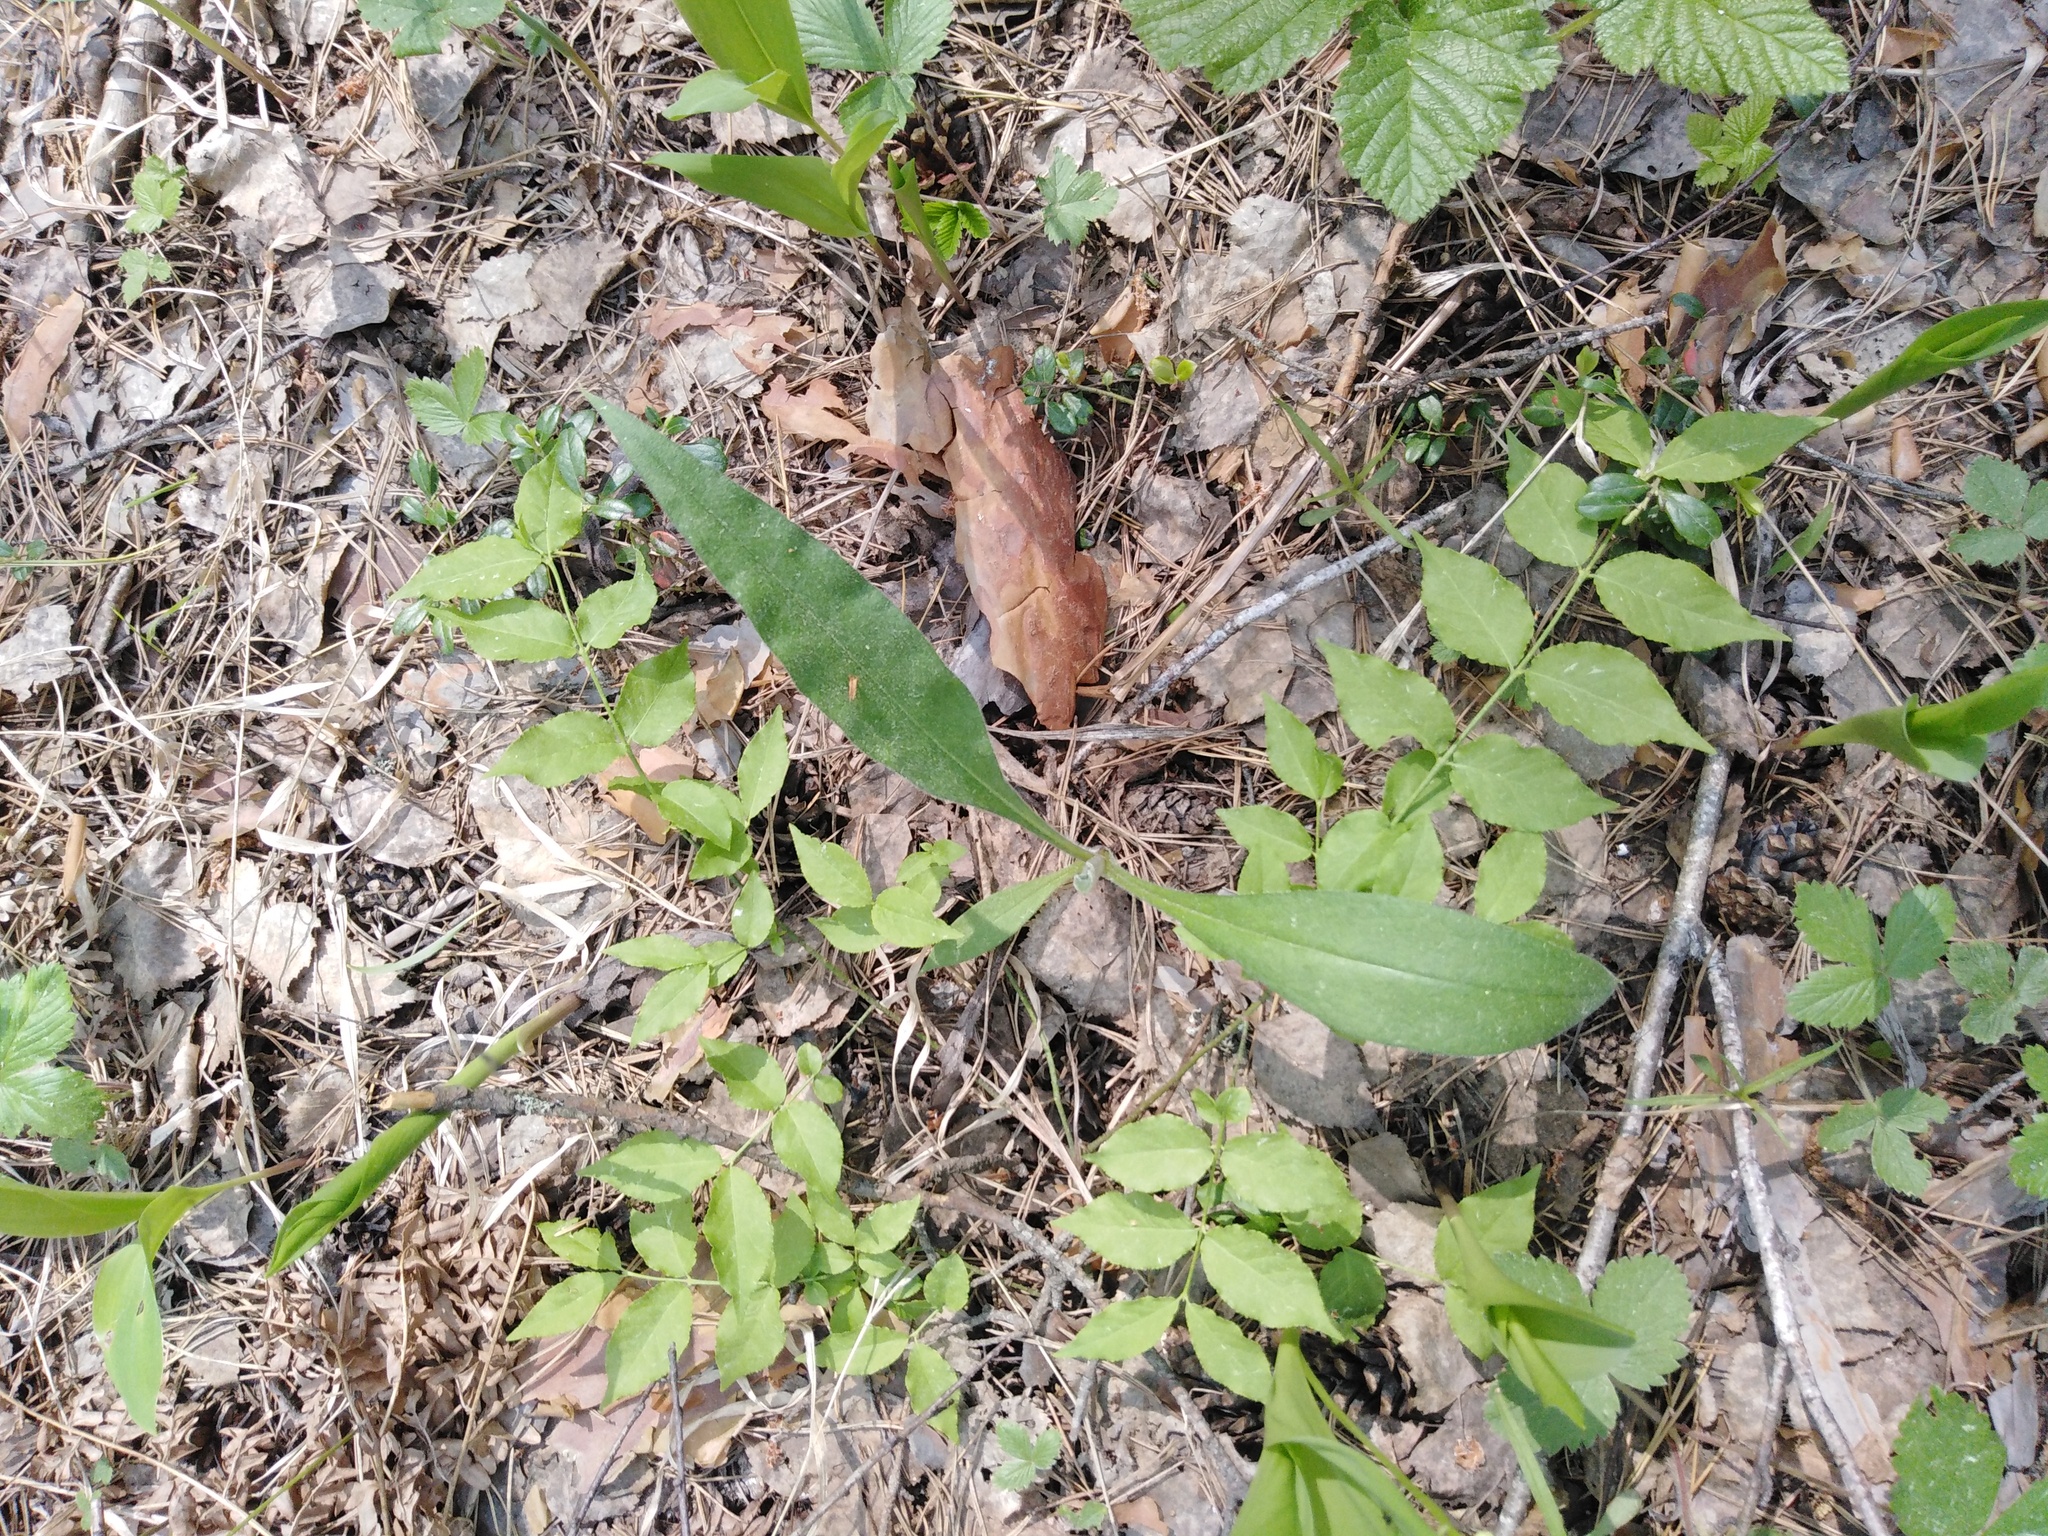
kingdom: Plantae
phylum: Tracheophyta
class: Magnoliopsida
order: Celastrales
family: Celastraceae
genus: Euonymus
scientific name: Euonymus verrucosus
